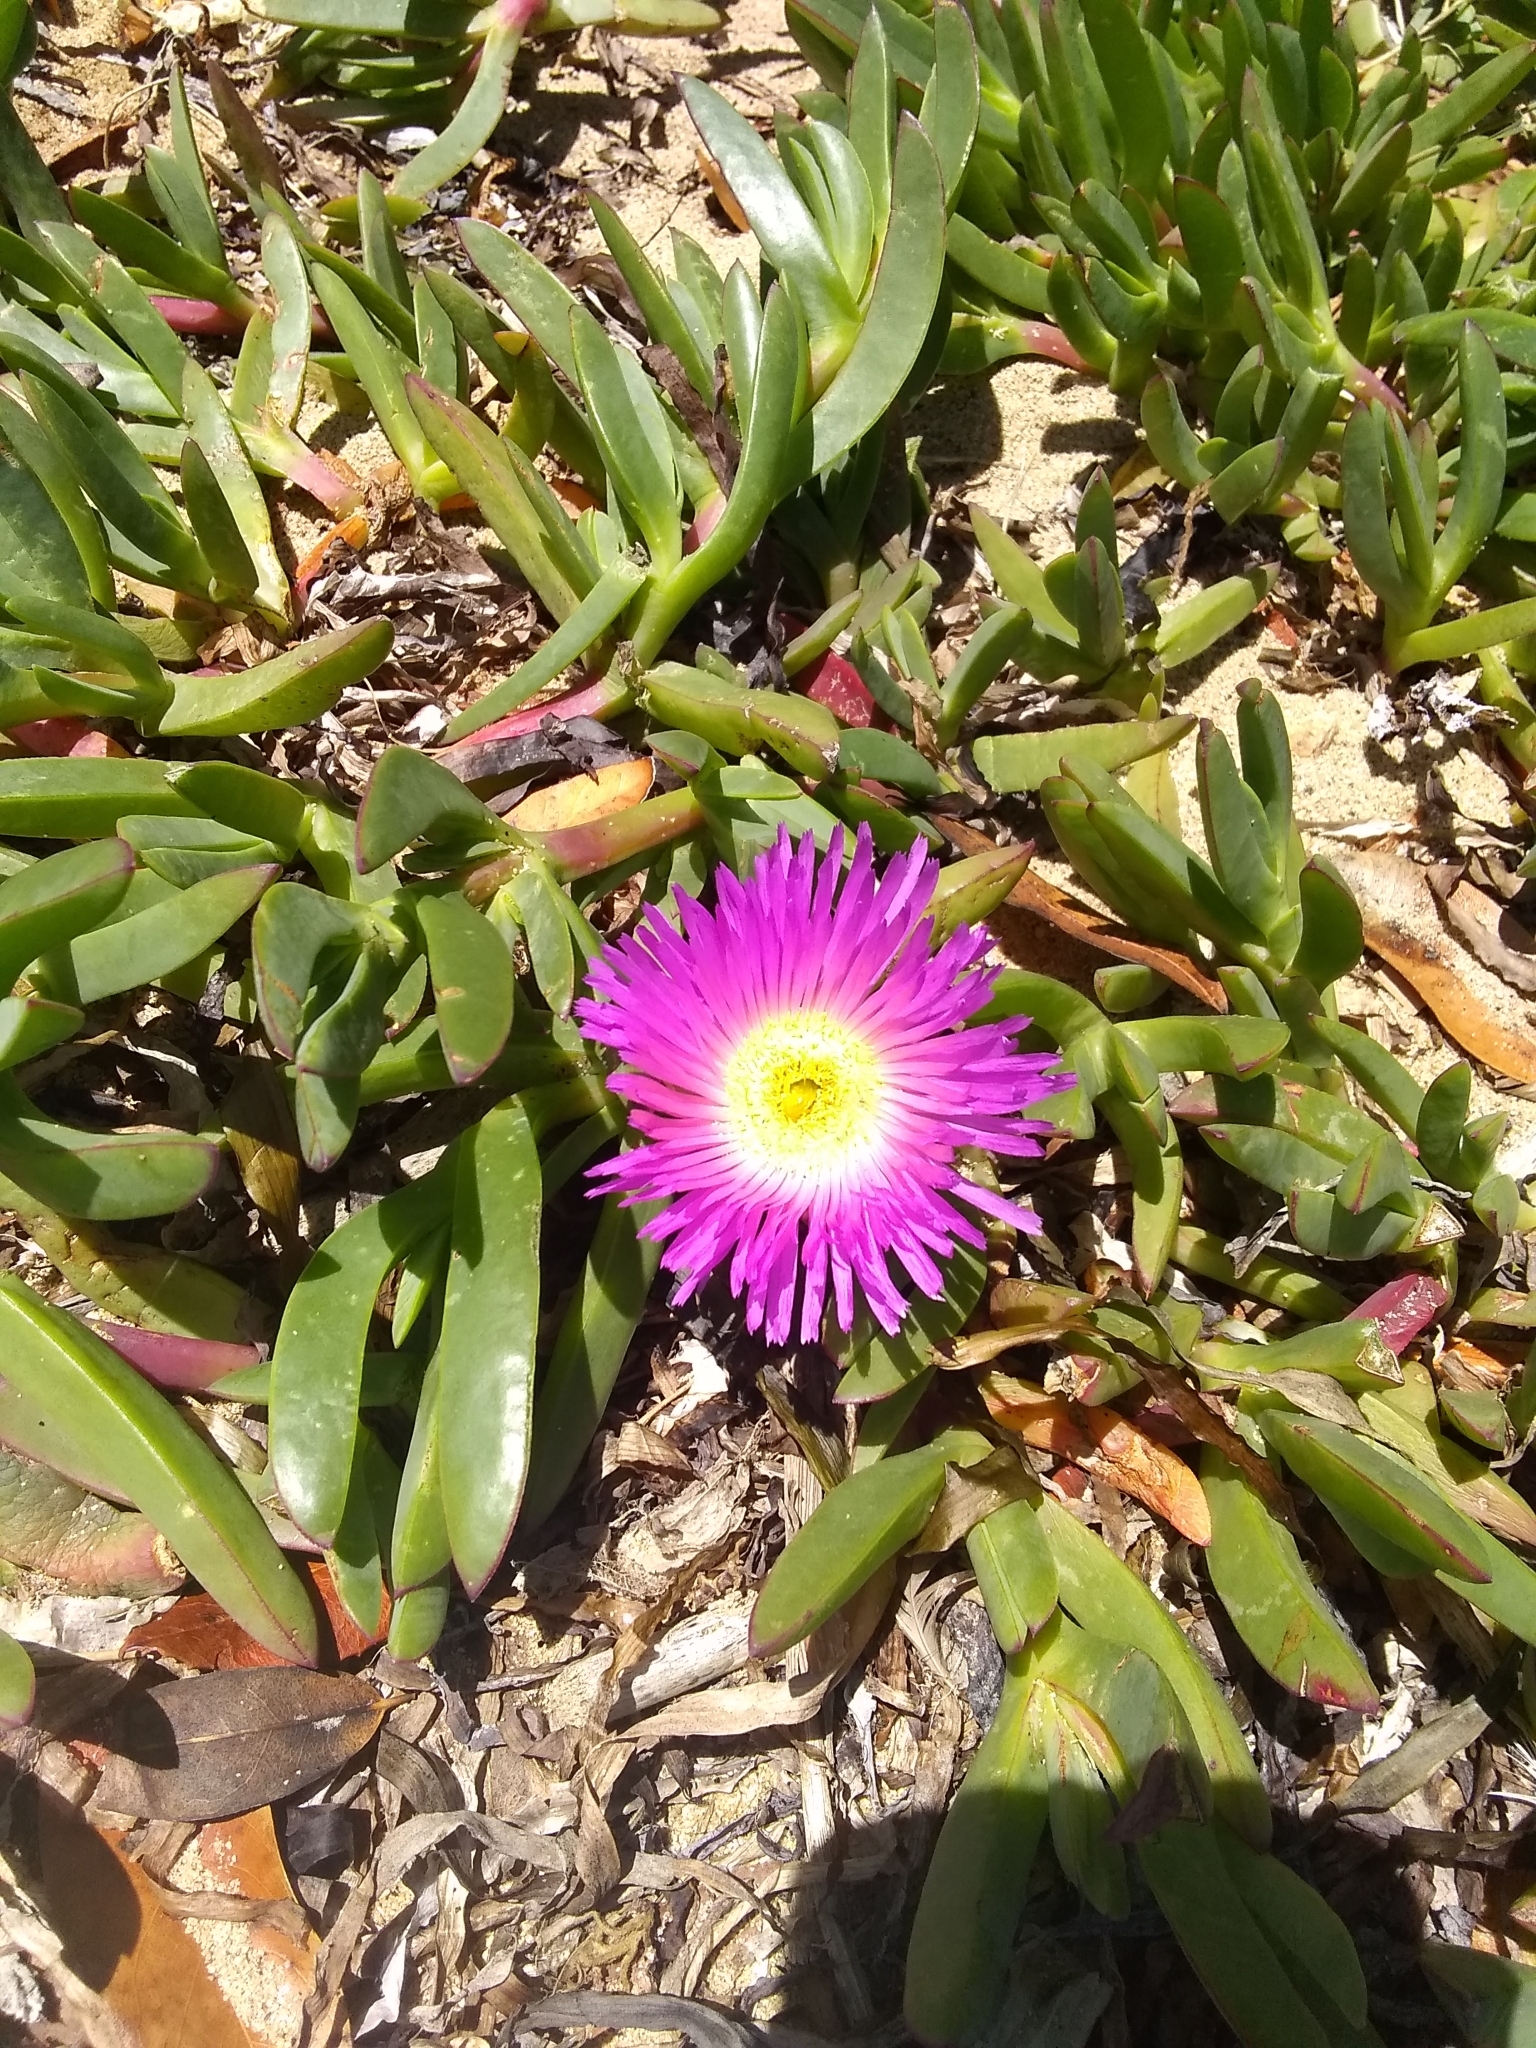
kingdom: Plantae
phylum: Tracheophyta
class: Magnoliopsida
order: Caryophyllales
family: Aizoaceae
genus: Carpobrotus
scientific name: Carpobrotus chilensis
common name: Sea fig
